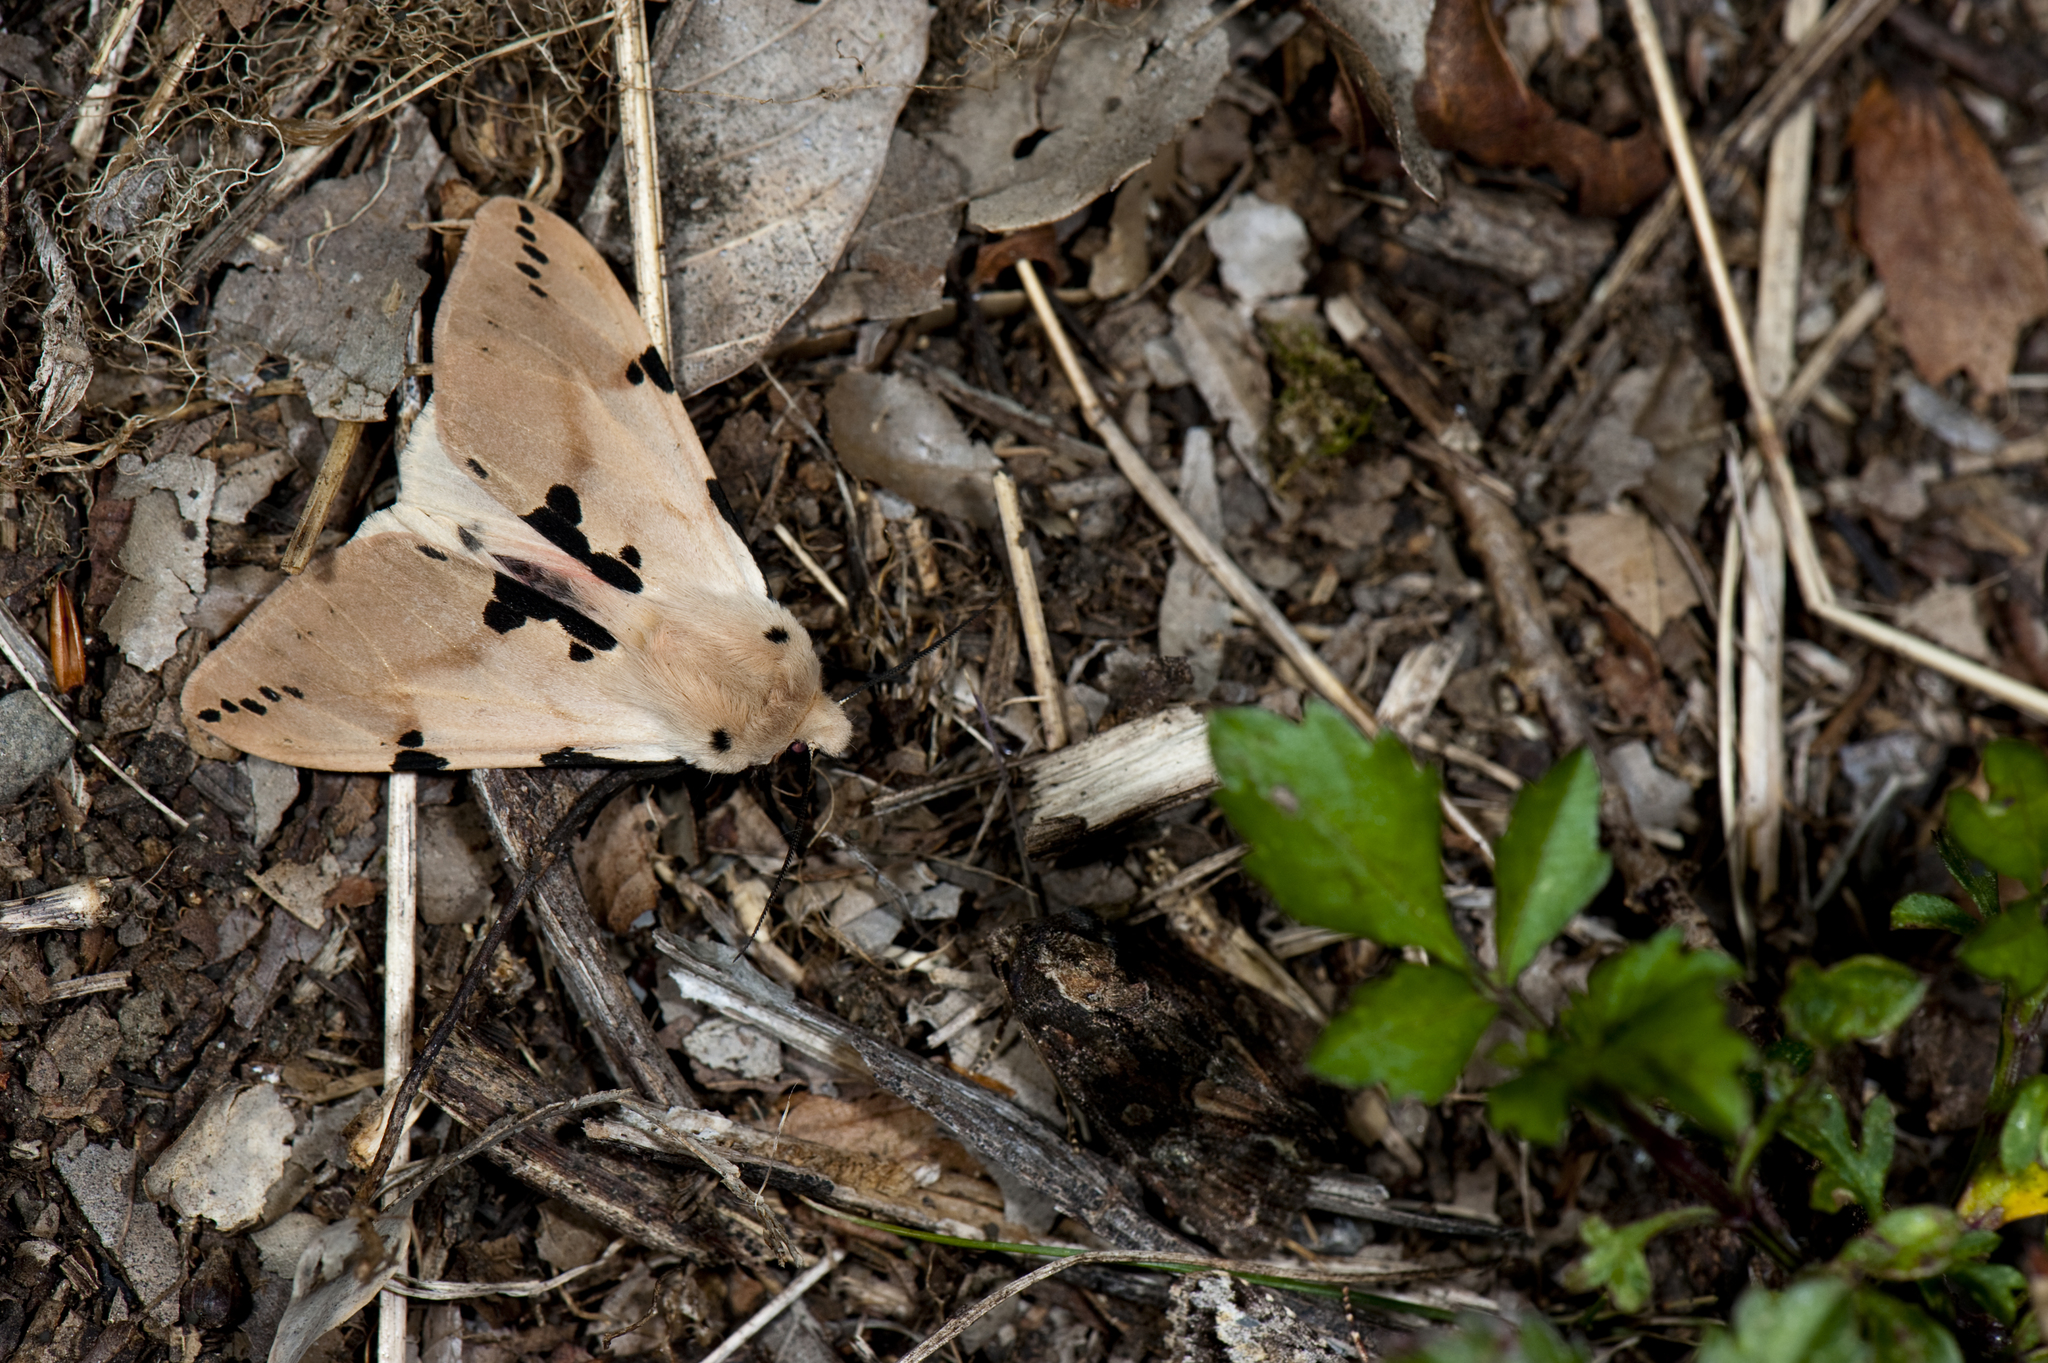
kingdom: Animalia
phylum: Arthropoda
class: Insecta
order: Lepidoptera
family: Erebidae
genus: Spilarctia
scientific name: Spilarctia clava
